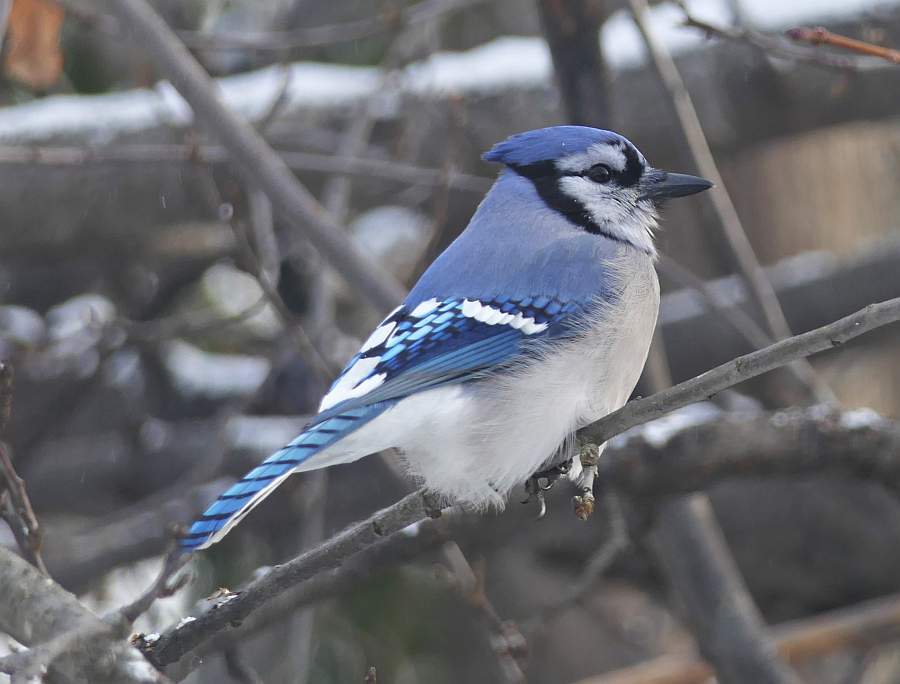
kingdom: Animalia
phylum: Chordata
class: Aves
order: Passeriformes
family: Corvidae
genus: Cyanocitta
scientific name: Cyanocitta cristata
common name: Blue jay
